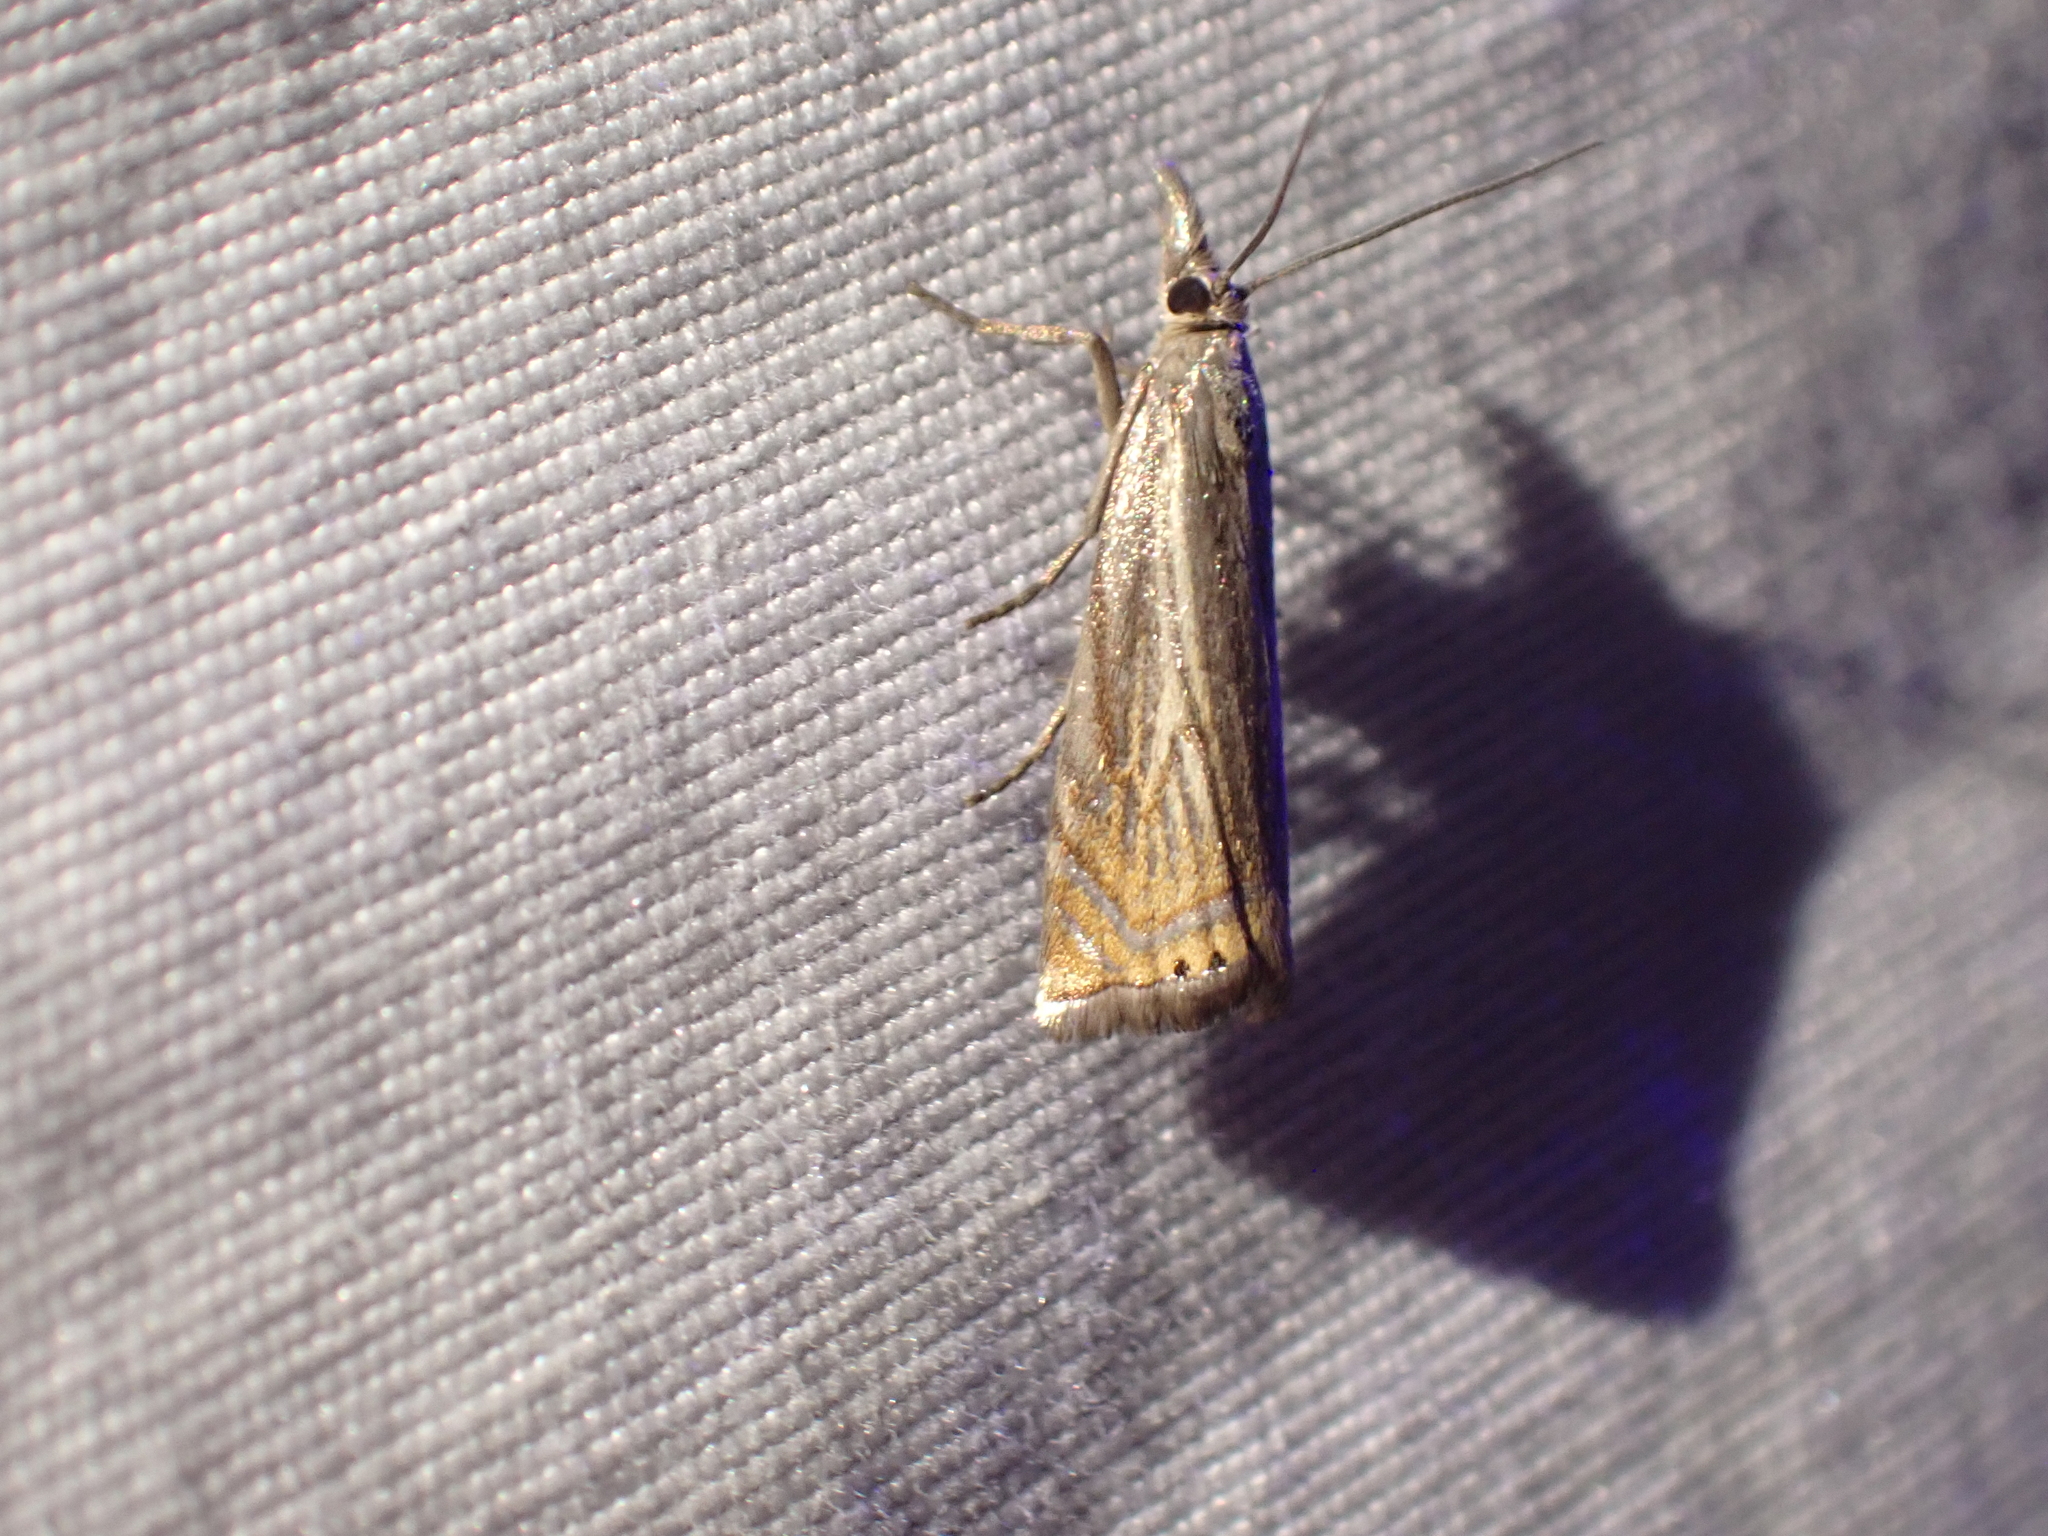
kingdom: Animalia
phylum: Arthropoda
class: Insecta
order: Lepidoptera
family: Crambidae
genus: Chrysoteuchia
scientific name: Chrysoteuchia topiarius
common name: Topiary grass-veneer
